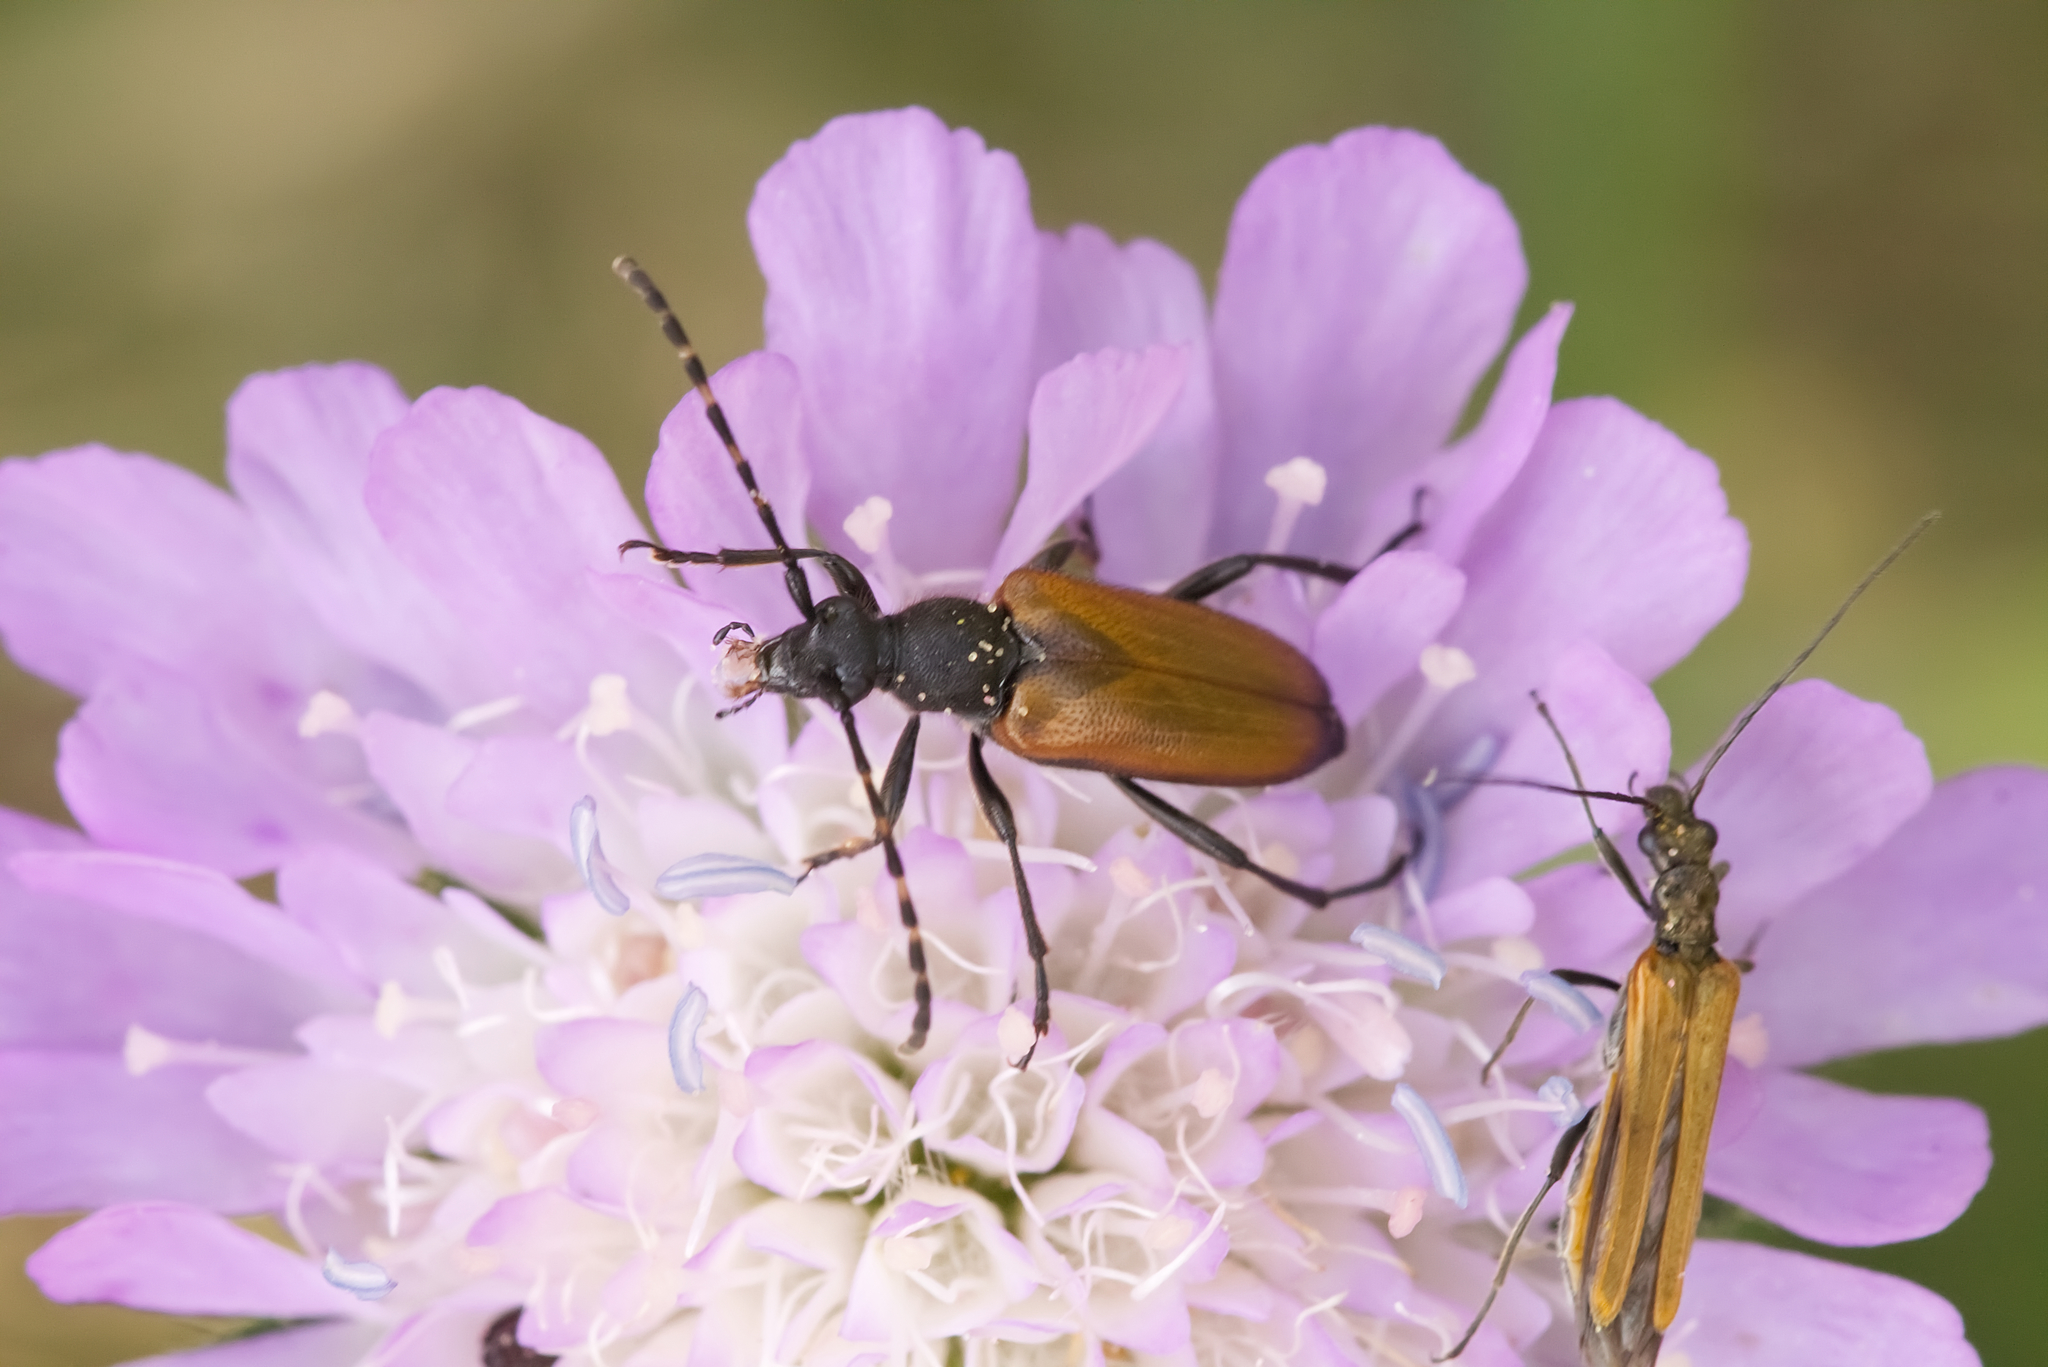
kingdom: Animalia
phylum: Arthropoda
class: Insecta
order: Coleoptera
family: Cerambycidae
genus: Paracorymbia
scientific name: Paracorymbia maculicornis
